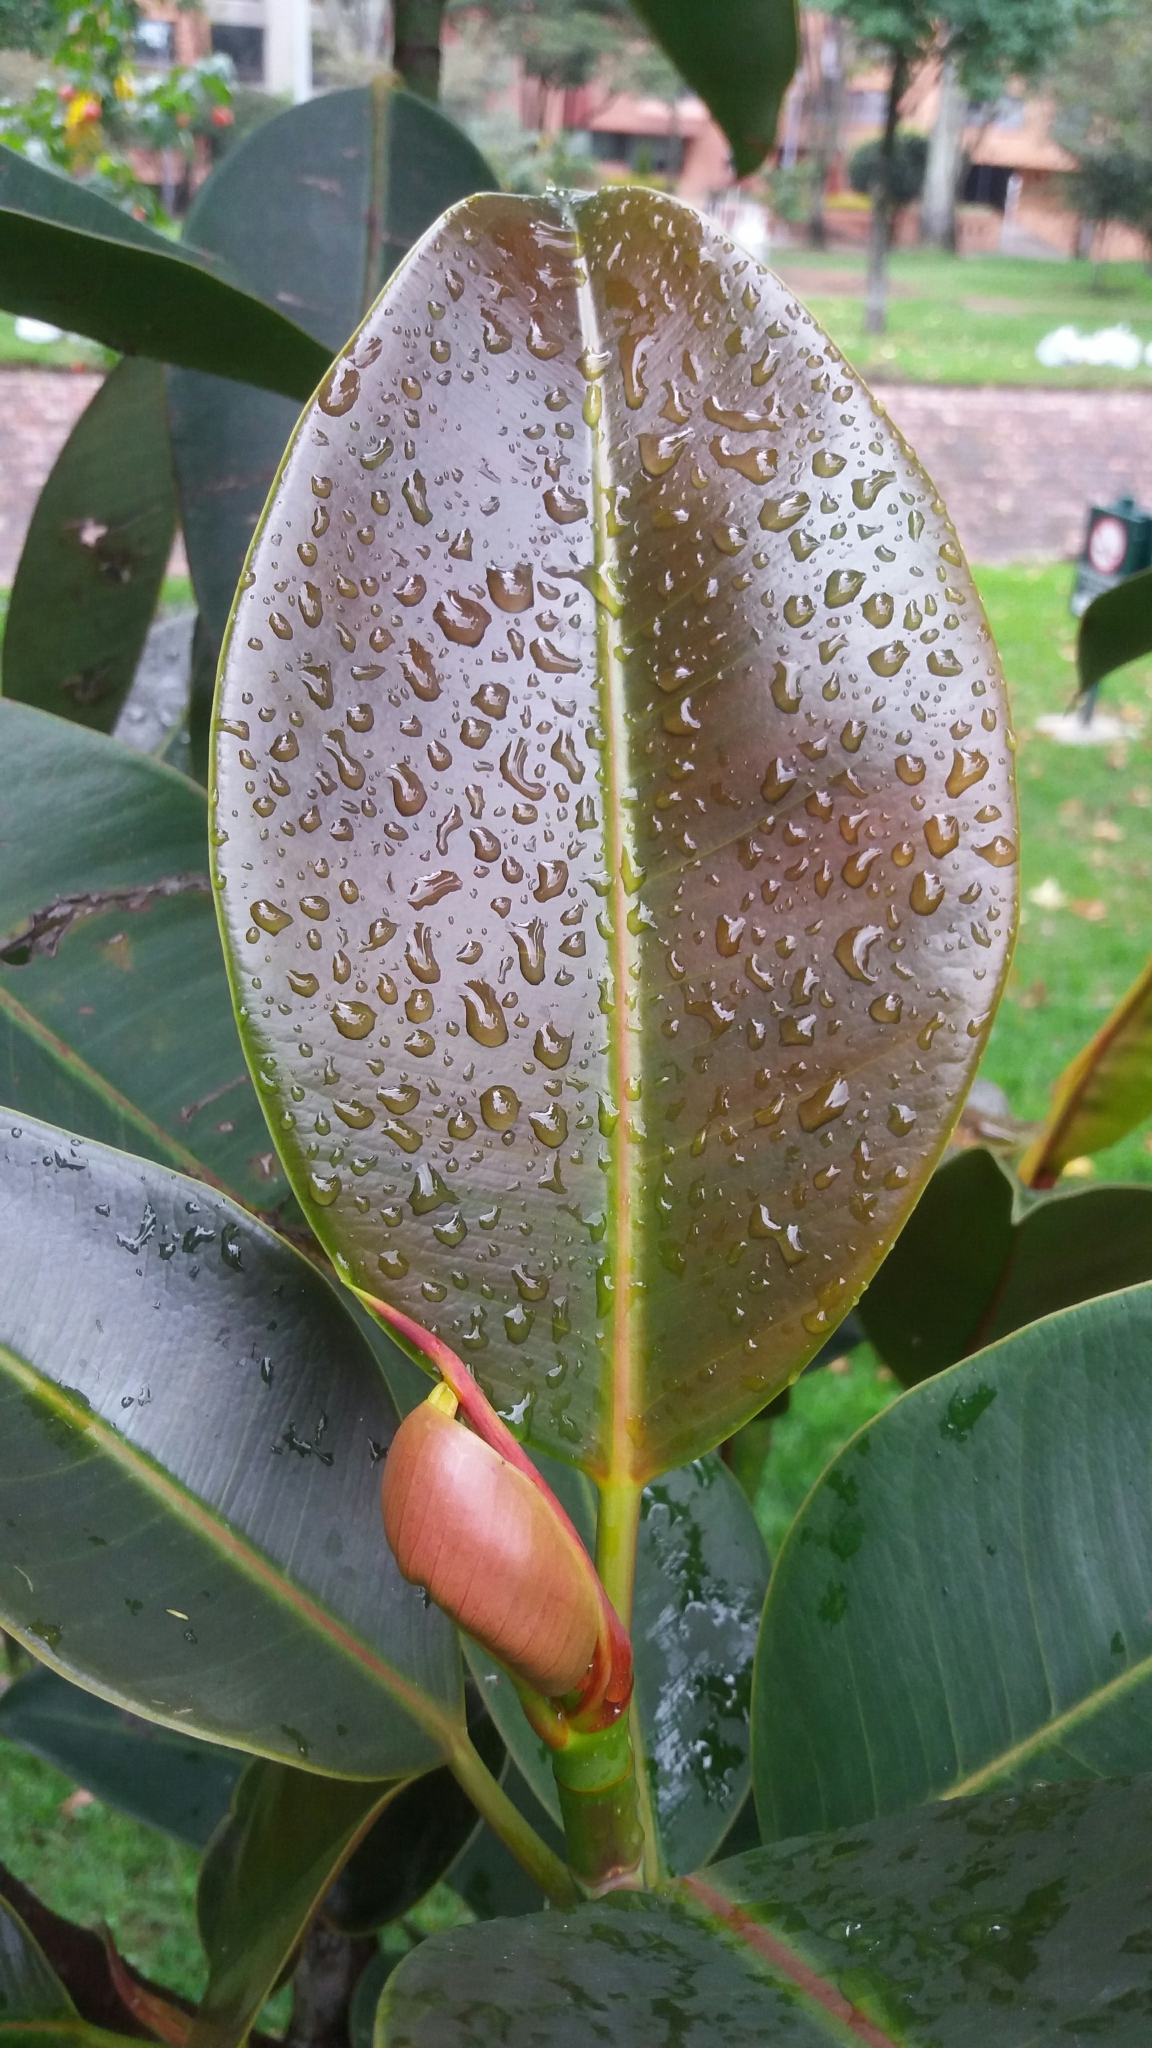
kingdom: Plantae
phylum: Tracheophyta
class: Magnoliopsida
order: Rosales
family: Moraceae
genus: Ficus
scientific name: Ficus elastica
